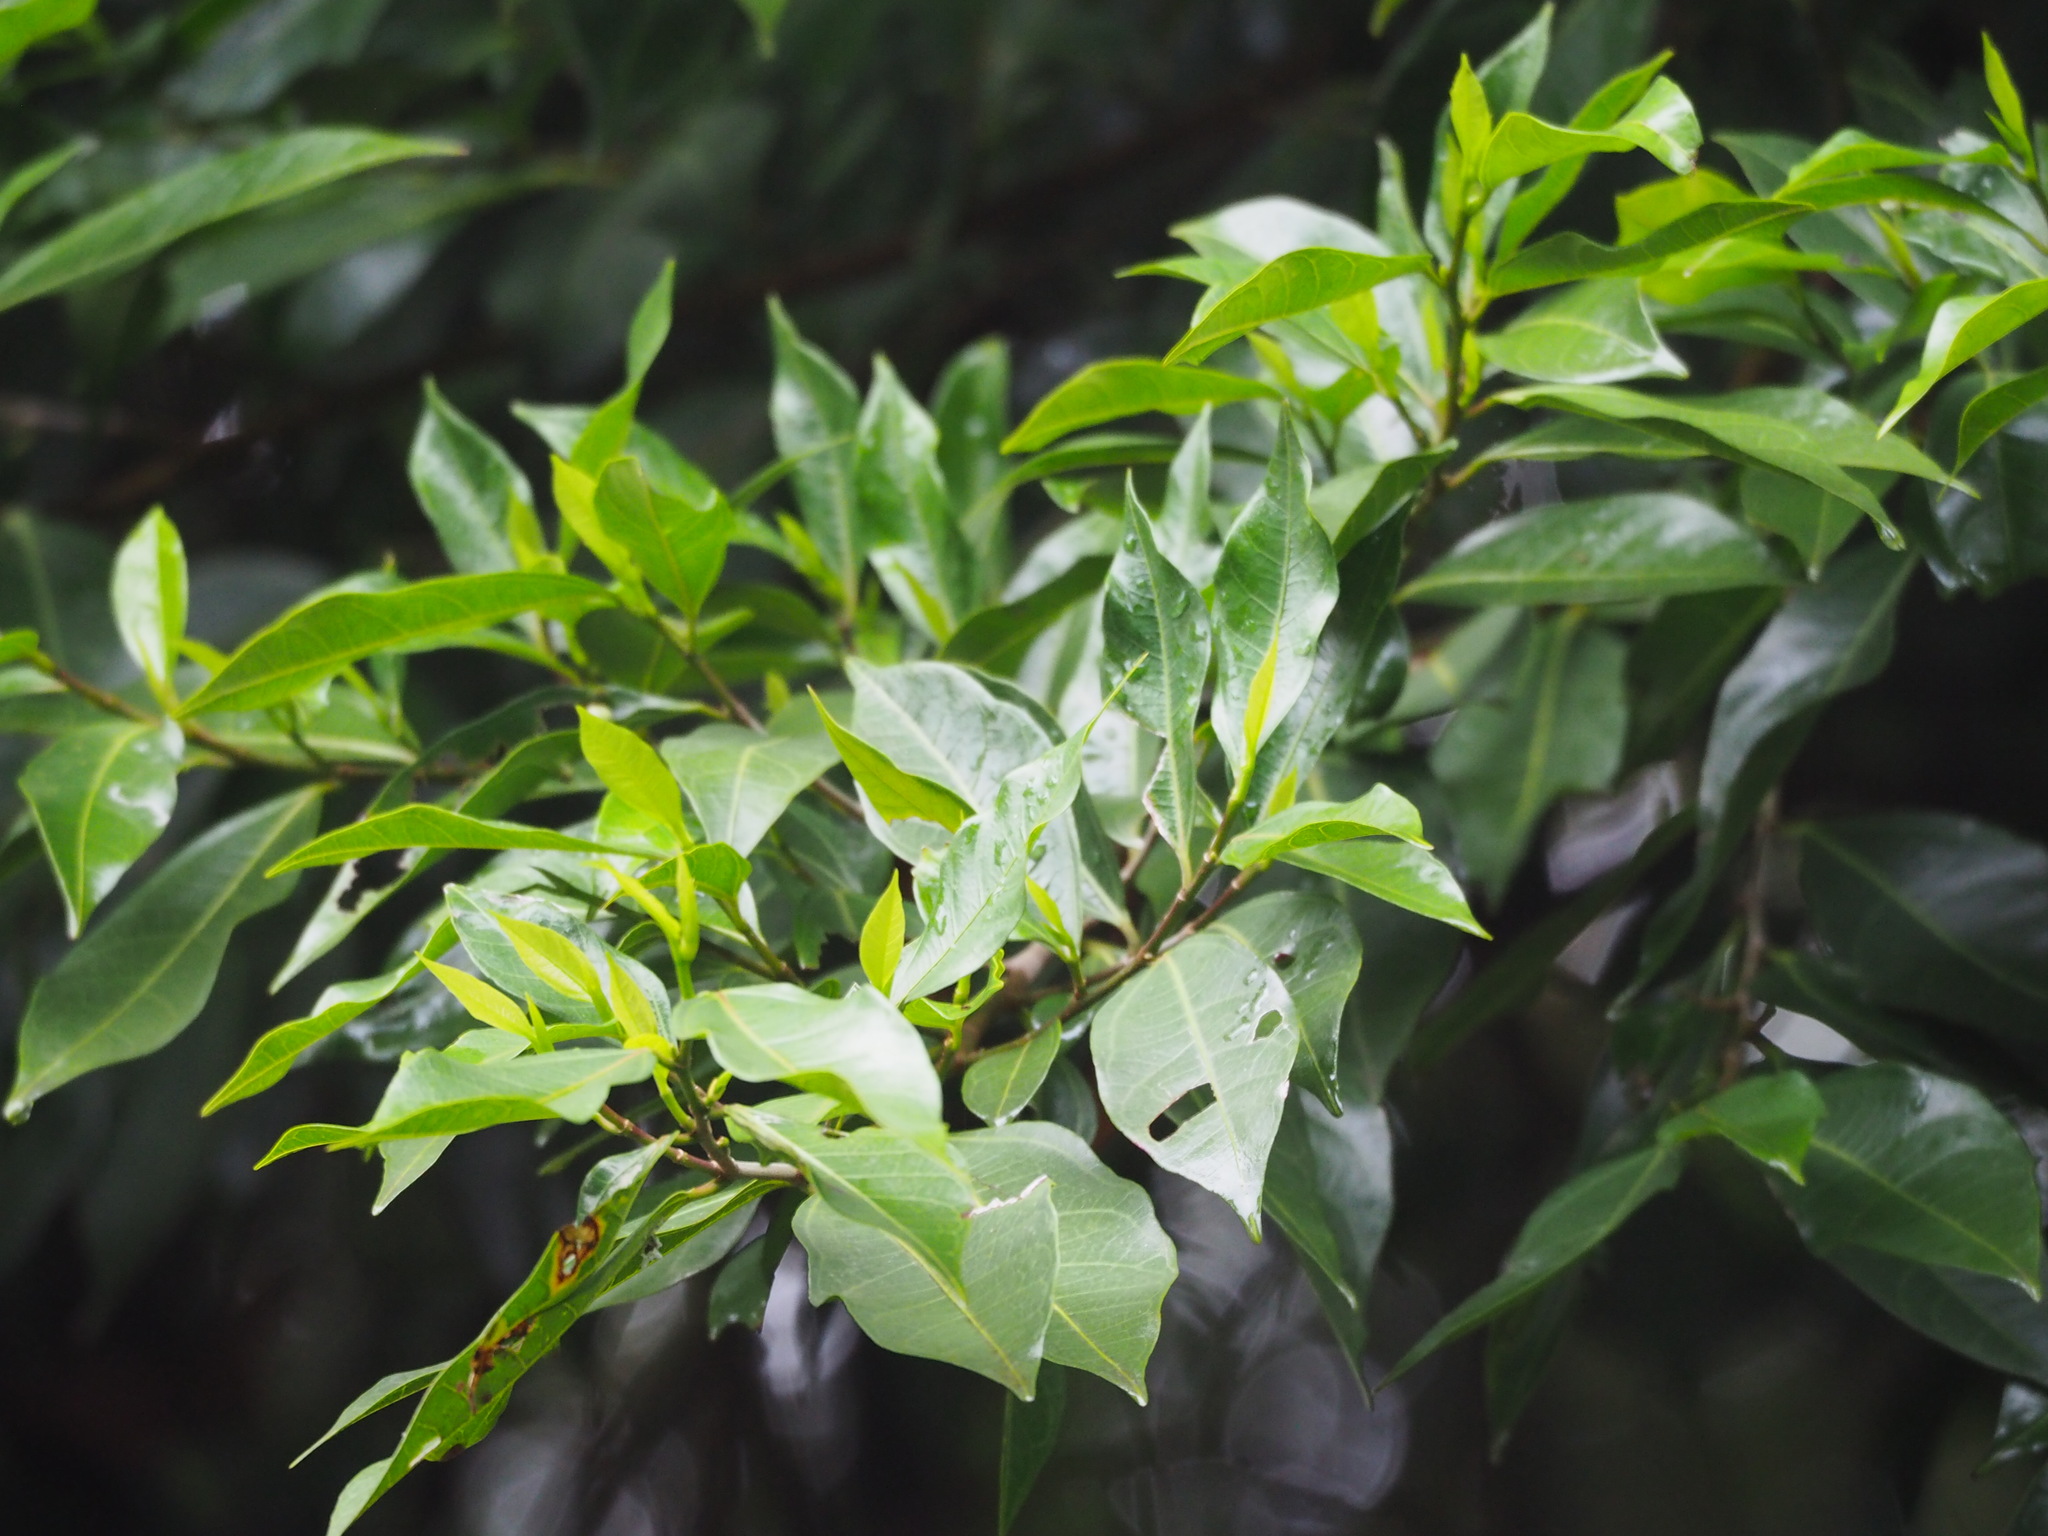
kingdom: Plantae
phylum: Tracheophyta
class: Magnoliopsida
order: Rosales
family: Moraceae
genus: Ficus
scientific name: Ficus ampelos
